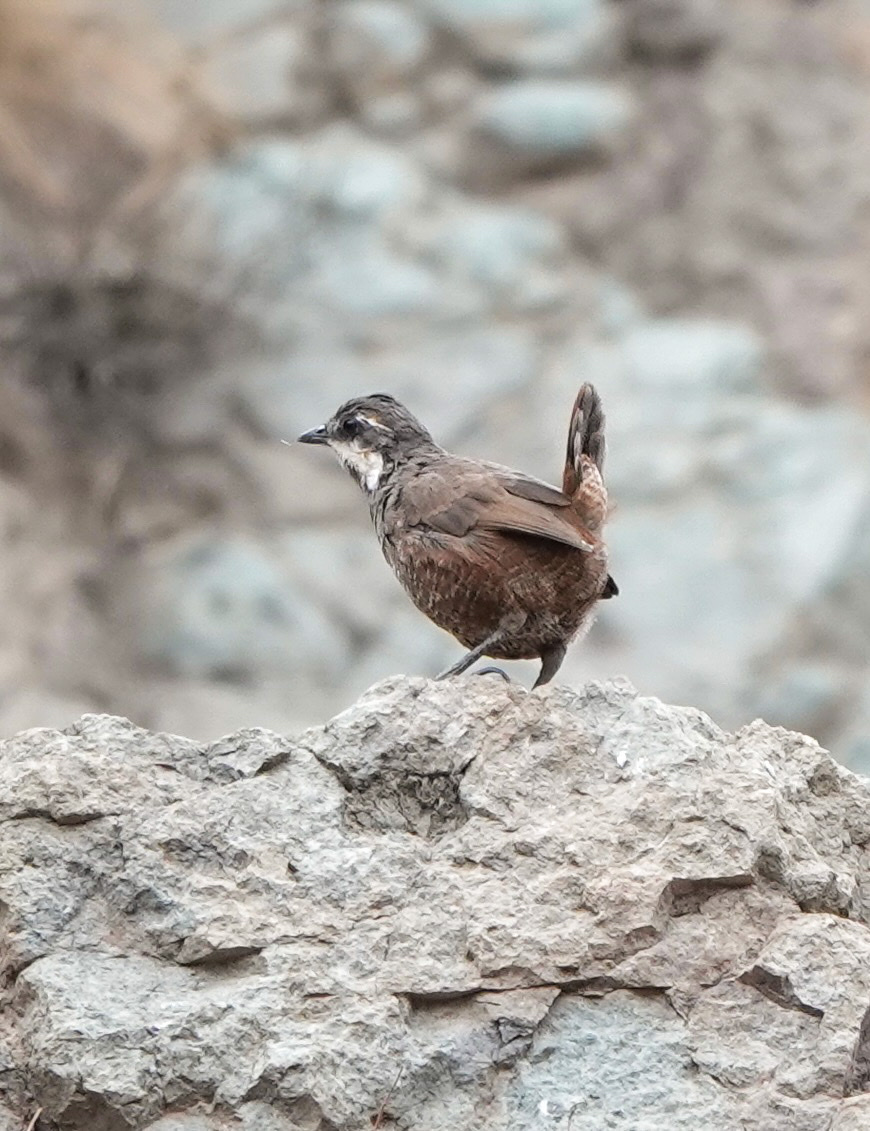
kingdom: Animalia
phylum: Chordata
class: Aves
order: Passeriformes
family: Rhinocryptidae
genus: Pteroptochos
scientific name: Pteroptochos megapodius
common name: Moustached turca
